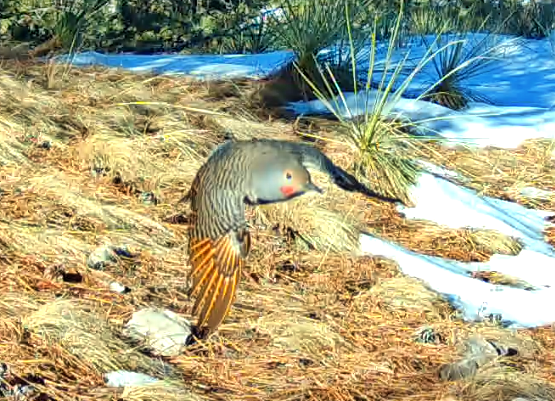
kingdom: Animalia
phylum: Chordata
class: Aves
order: Piciformes
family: Picidae
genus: Colaptes
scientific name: Colaptes auratus
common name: Northern flicker
